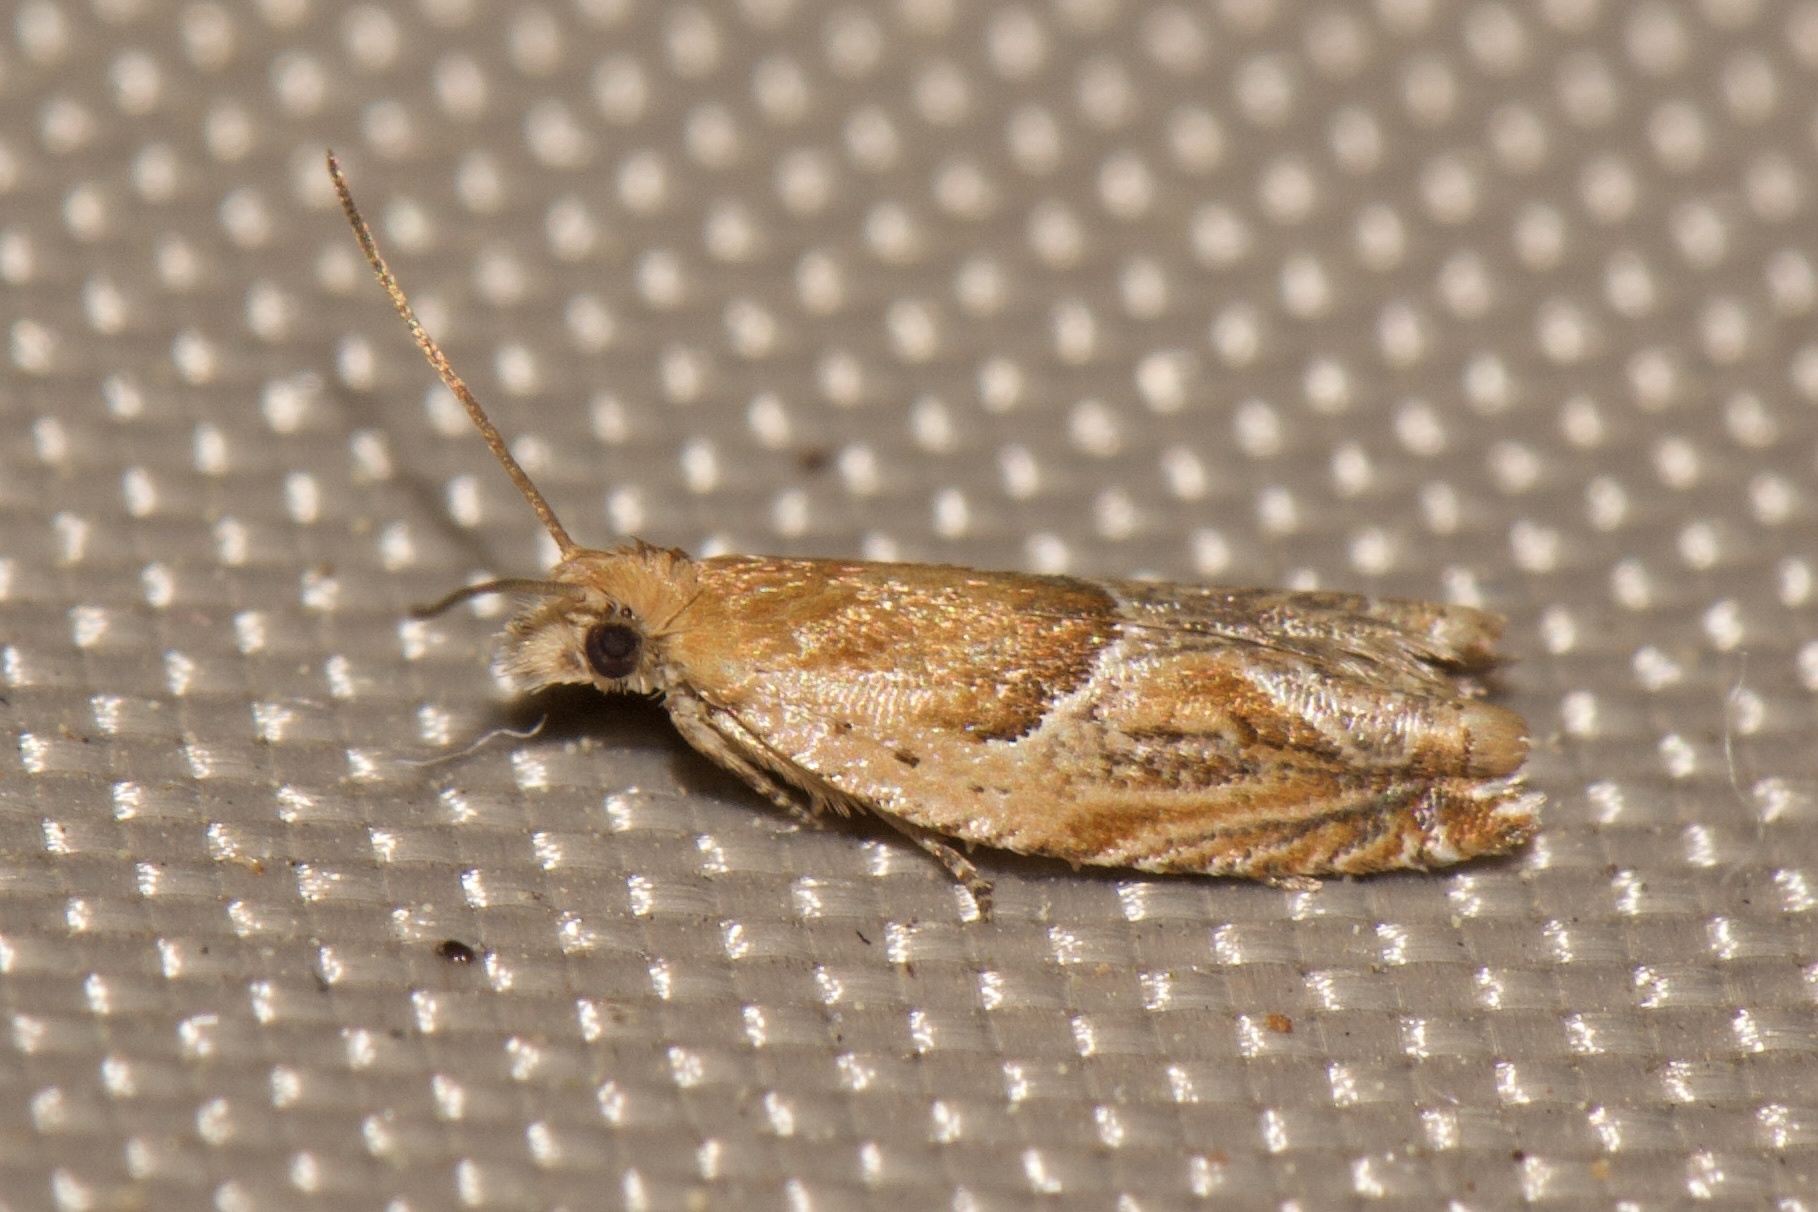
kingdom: Animalia
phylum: Arthropoda
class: Insecta
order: Lepidoptera
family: Tortricidae
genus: Ancylis
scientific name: Ancylis comptana
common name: Little roller
